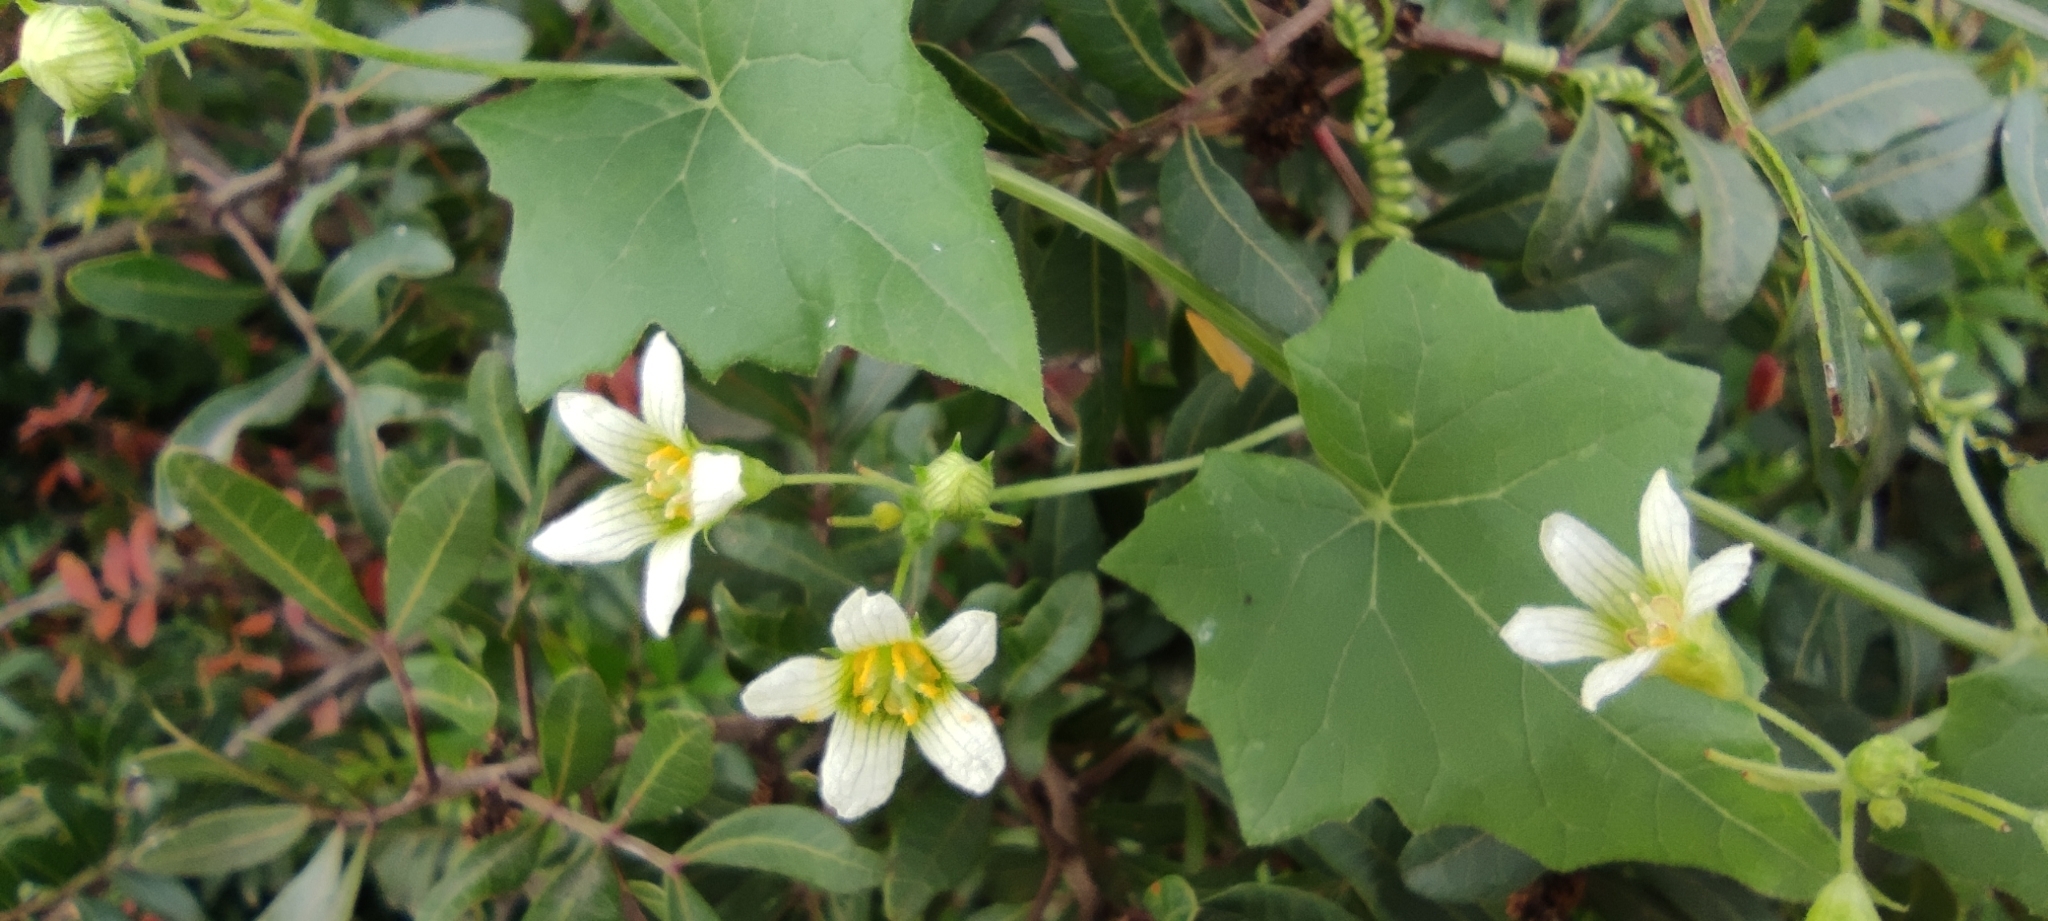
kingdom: Plantae
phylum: Tracheophyta
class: Magnoliopsida
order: Cucurbitales
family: Cucurbitaceae
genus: Bryonia
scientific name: Bryonia cretica
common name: Cretan bryony
